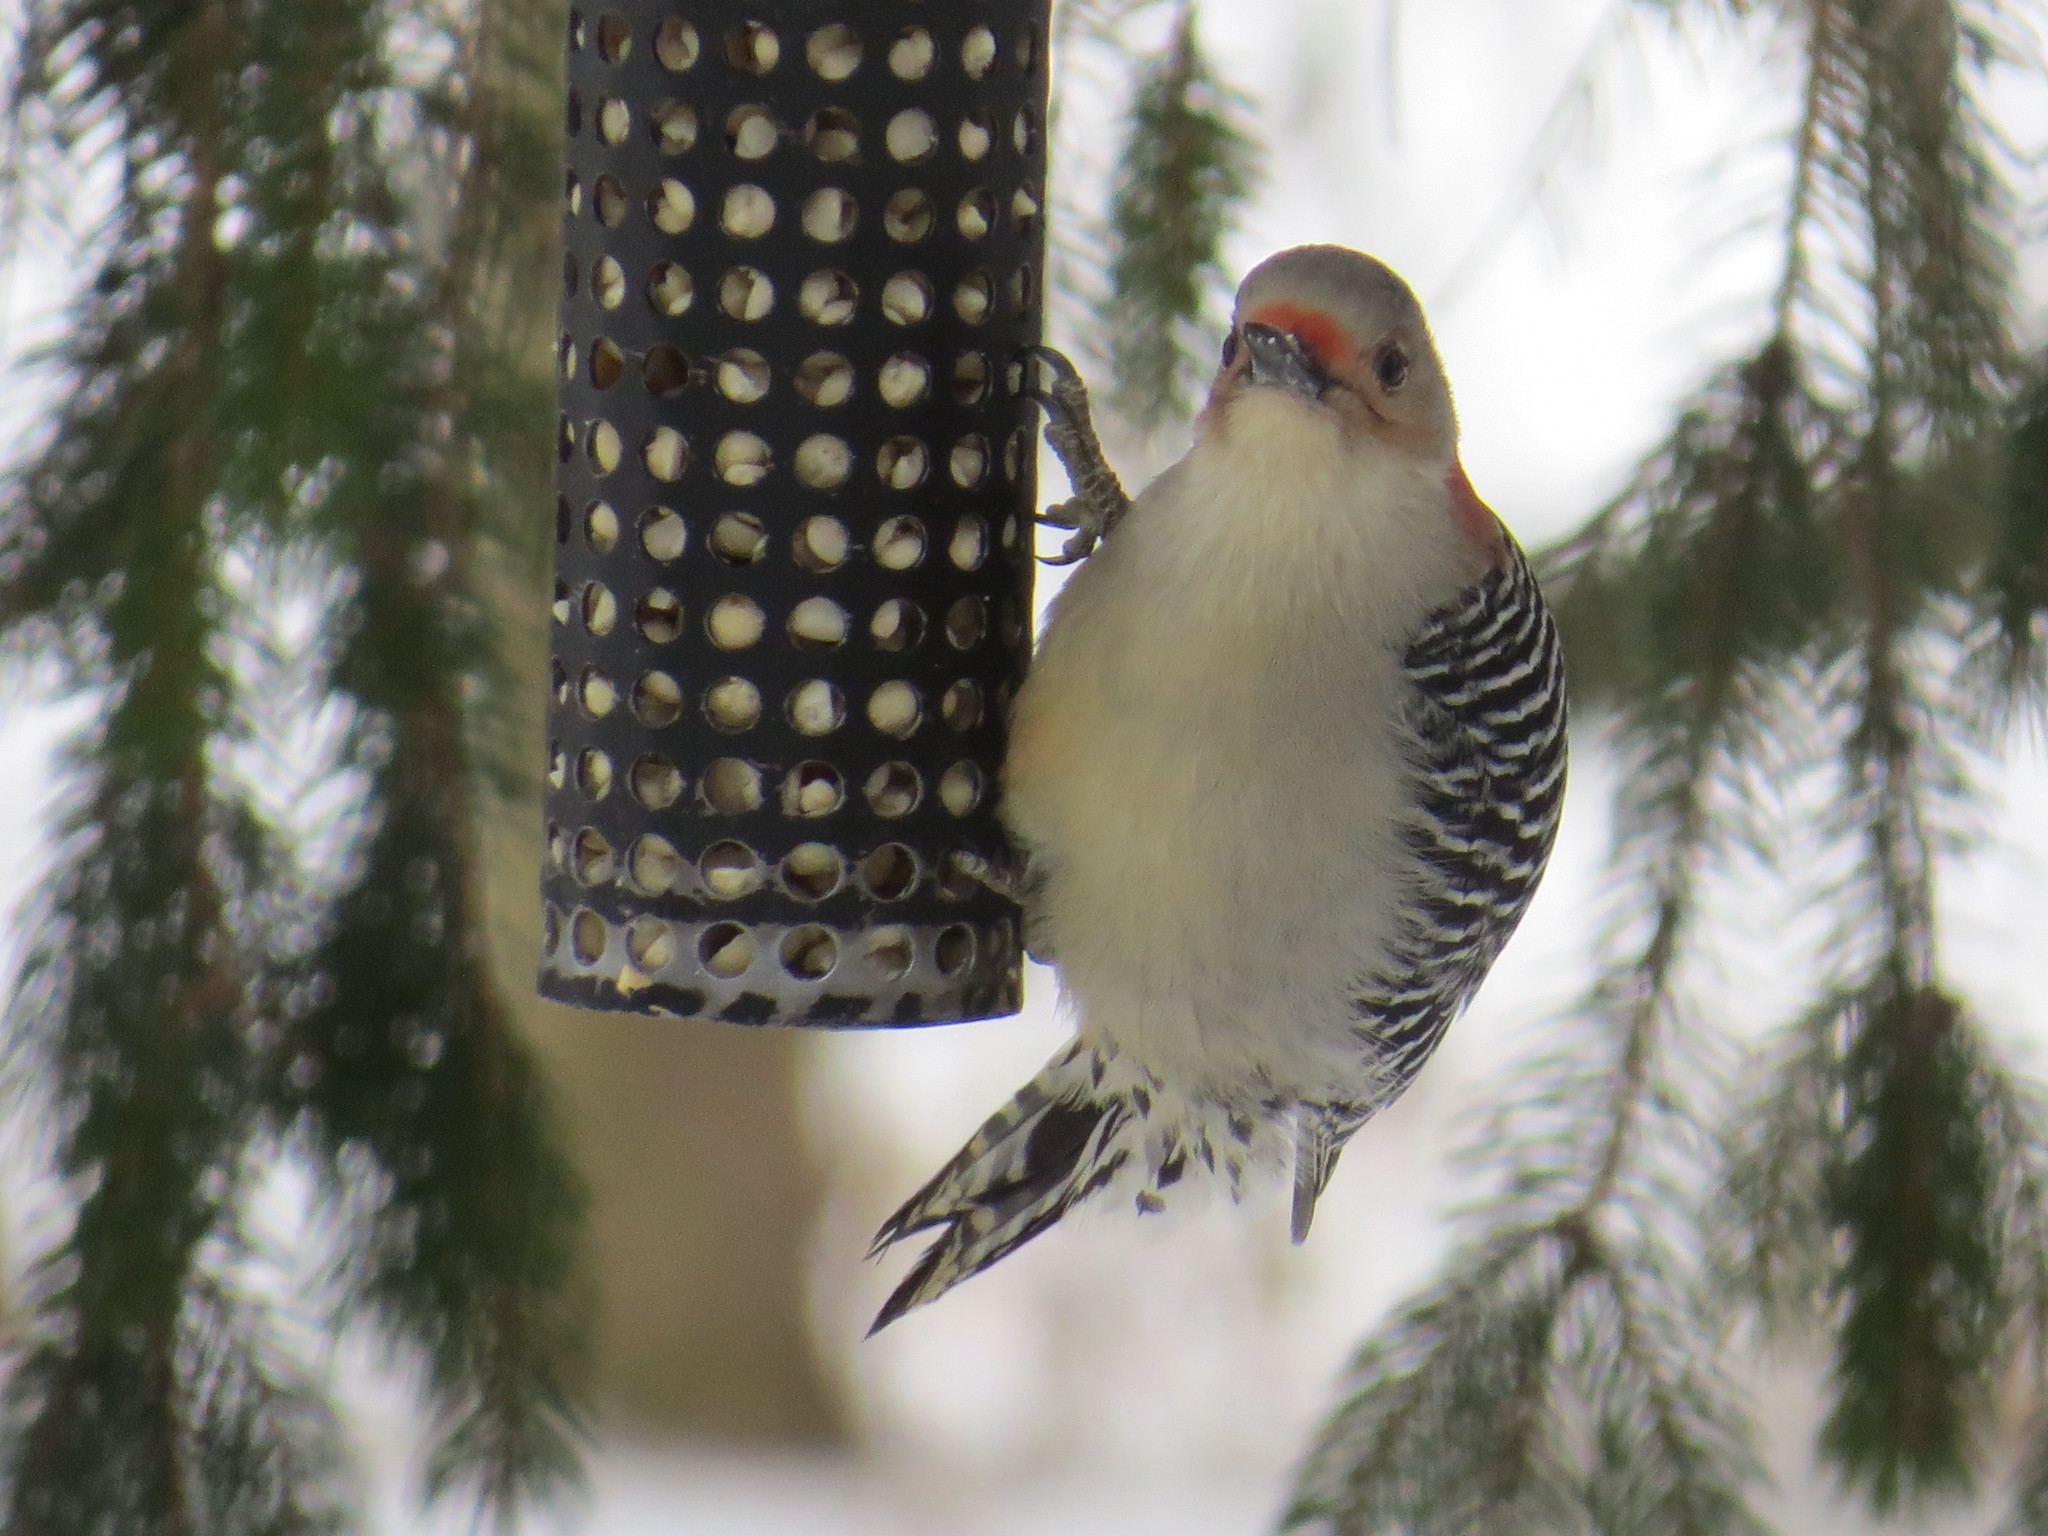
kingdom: Animalia
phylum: Chordata
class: Aves
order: Piciformes
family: Picidae
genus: Melanerpes
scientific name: Melanerpes carolinus
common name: Red-bellied woodpecker
